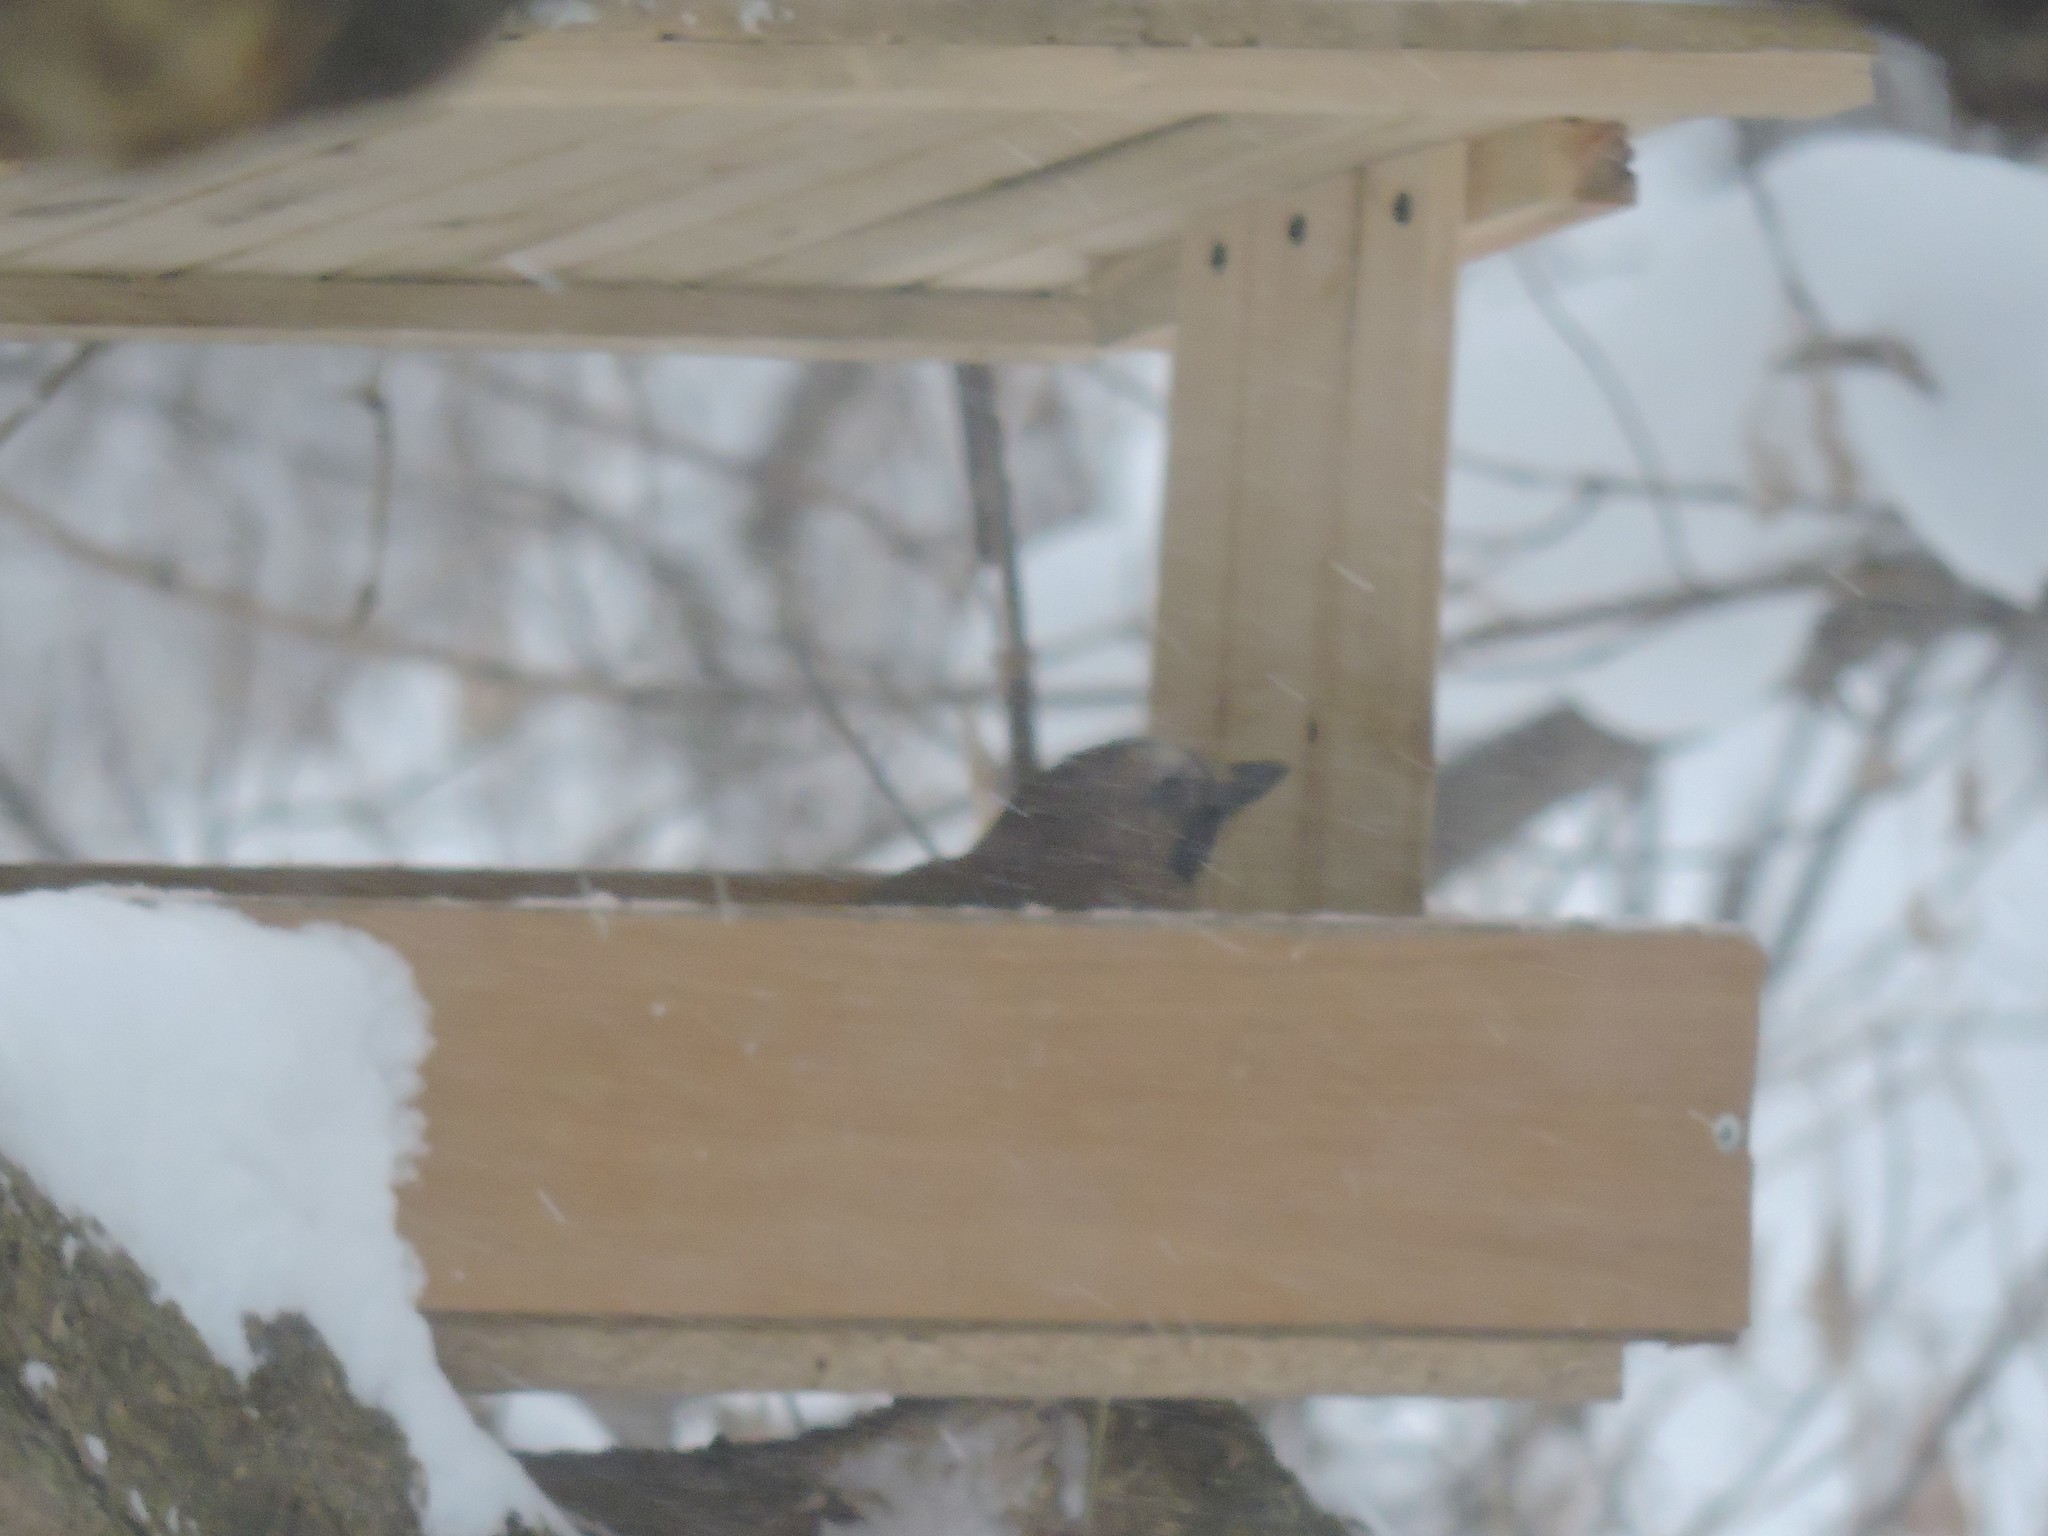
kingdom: Animalia
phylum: Chordata
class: Aves
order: Passeriformes
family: Corvidae
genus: Garrulus
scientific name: Garrulus glandarius
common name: Eurasian jay
